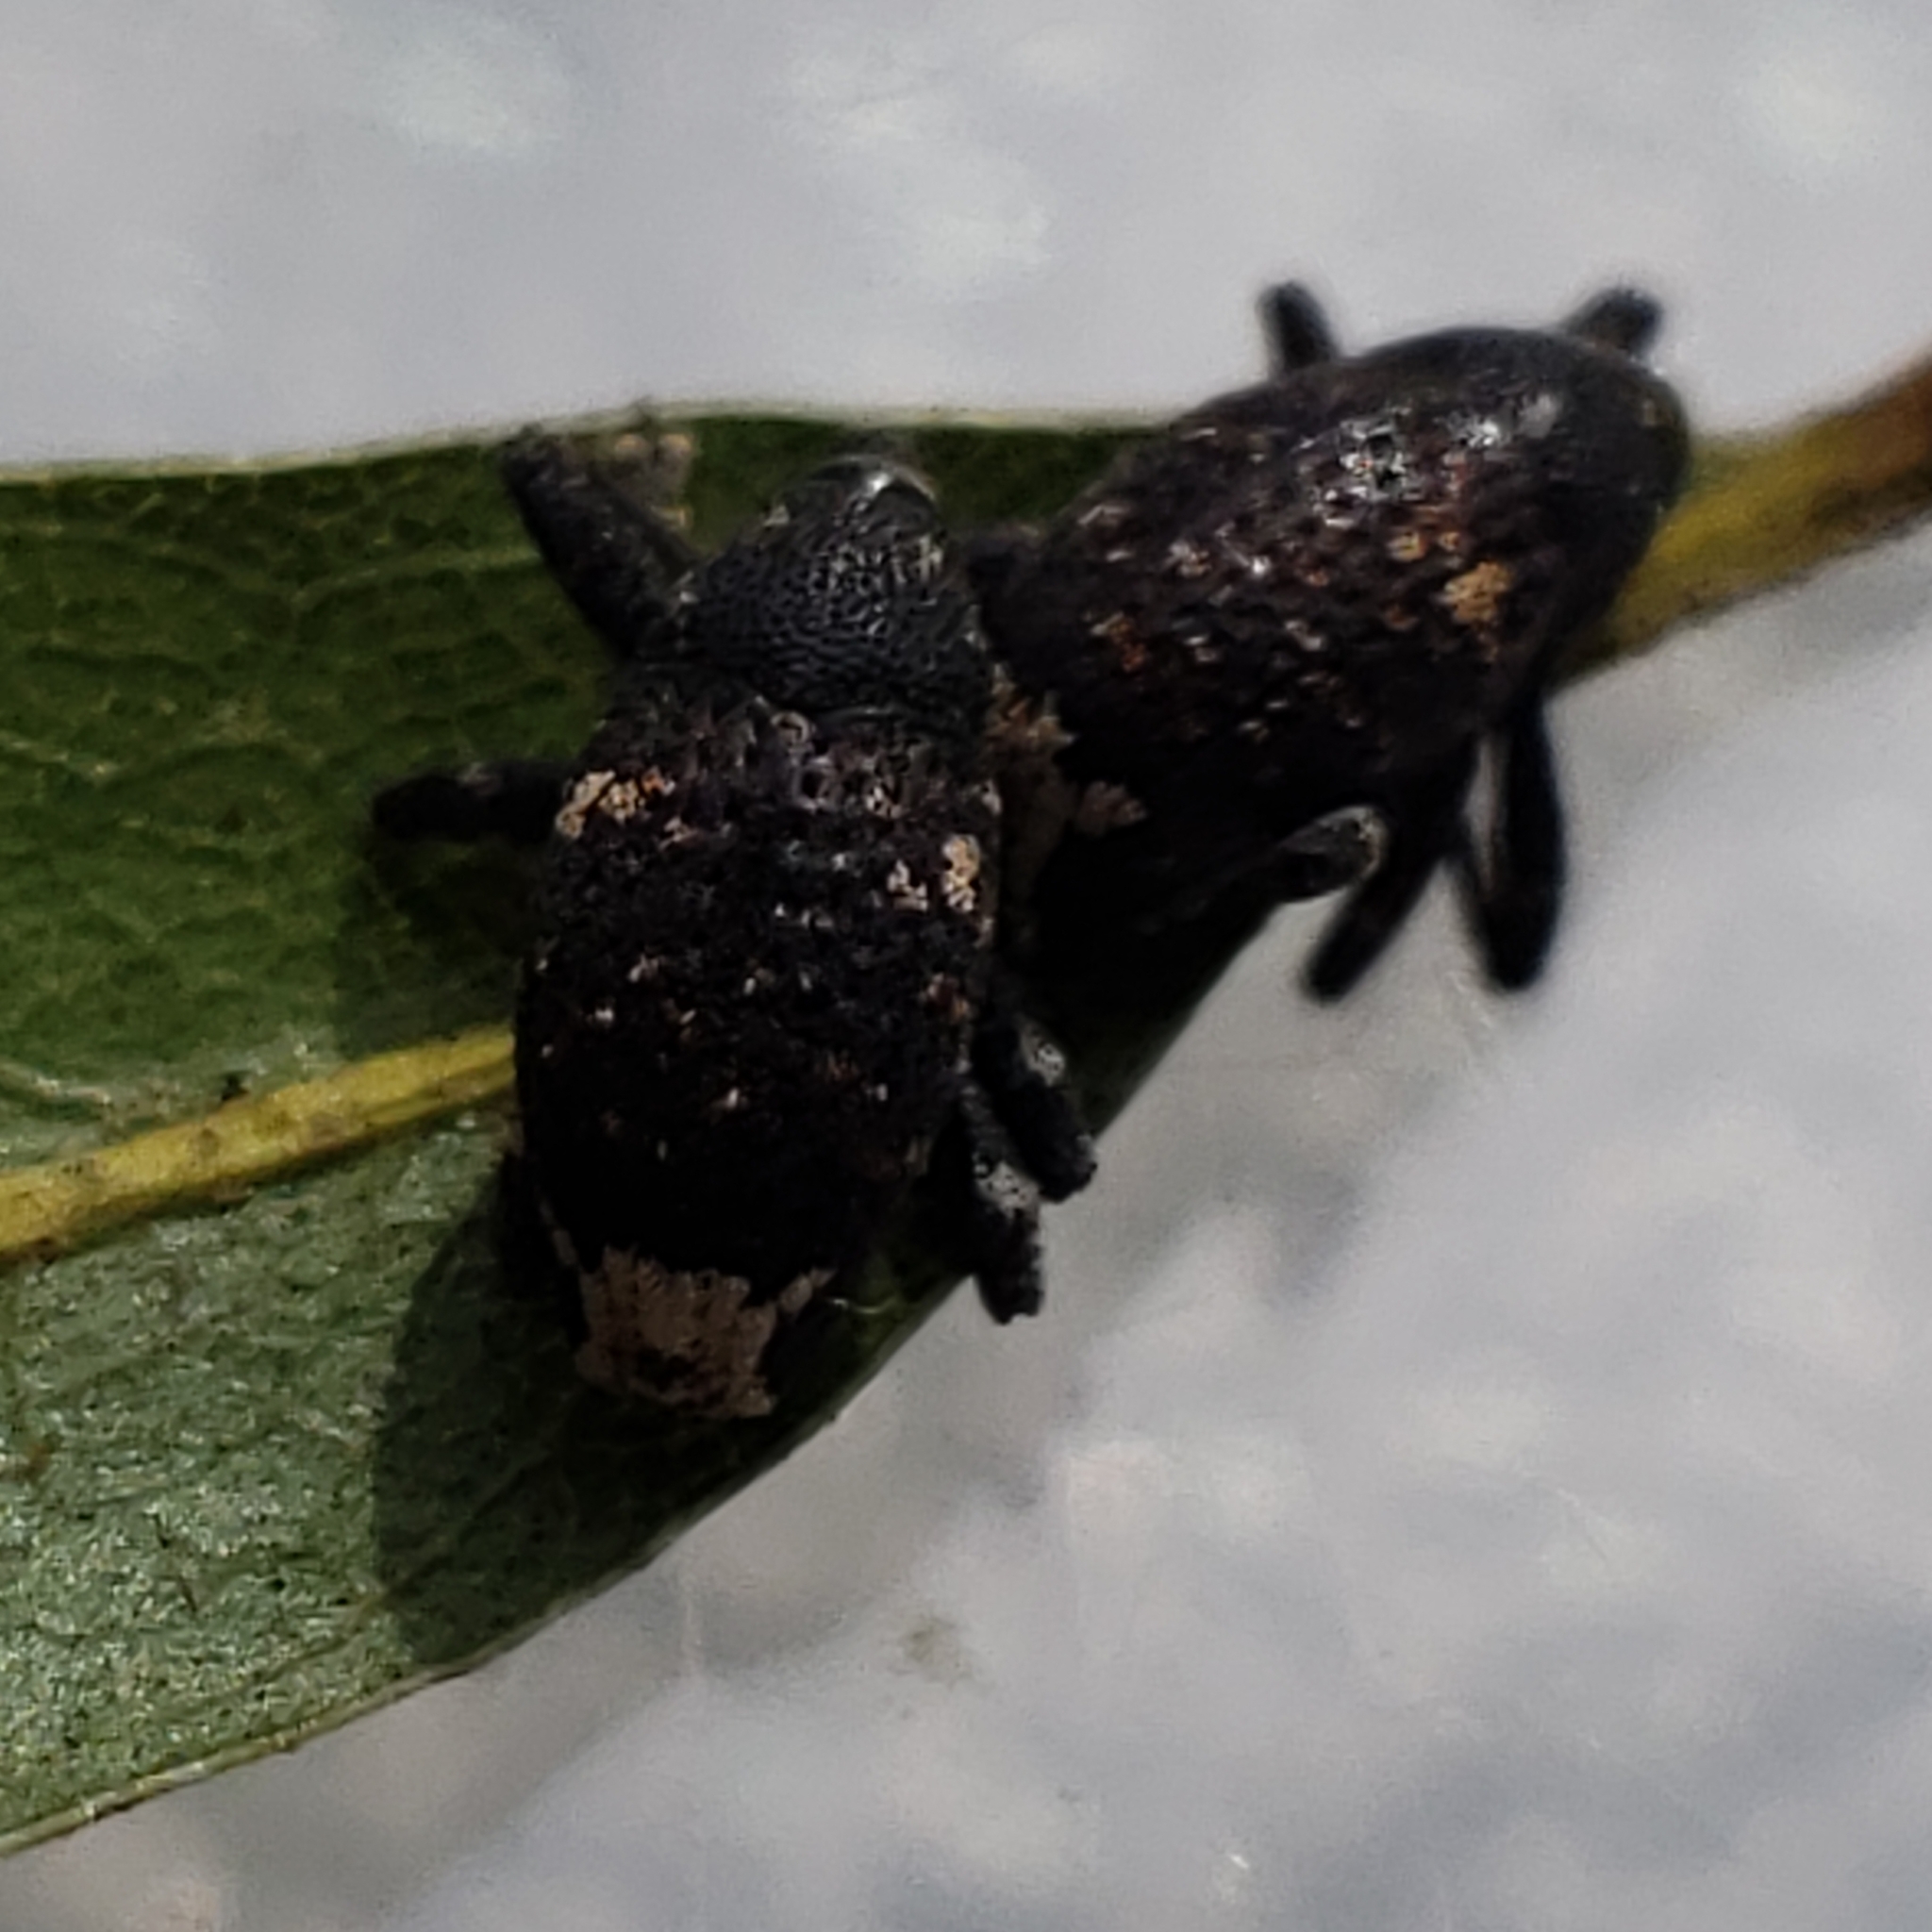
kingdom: Animalia
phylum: Arthropoda
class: Insecta
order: Coleoptera
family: Curculionidae
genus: Pseudomus
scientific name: Pseudomus sedentarius
